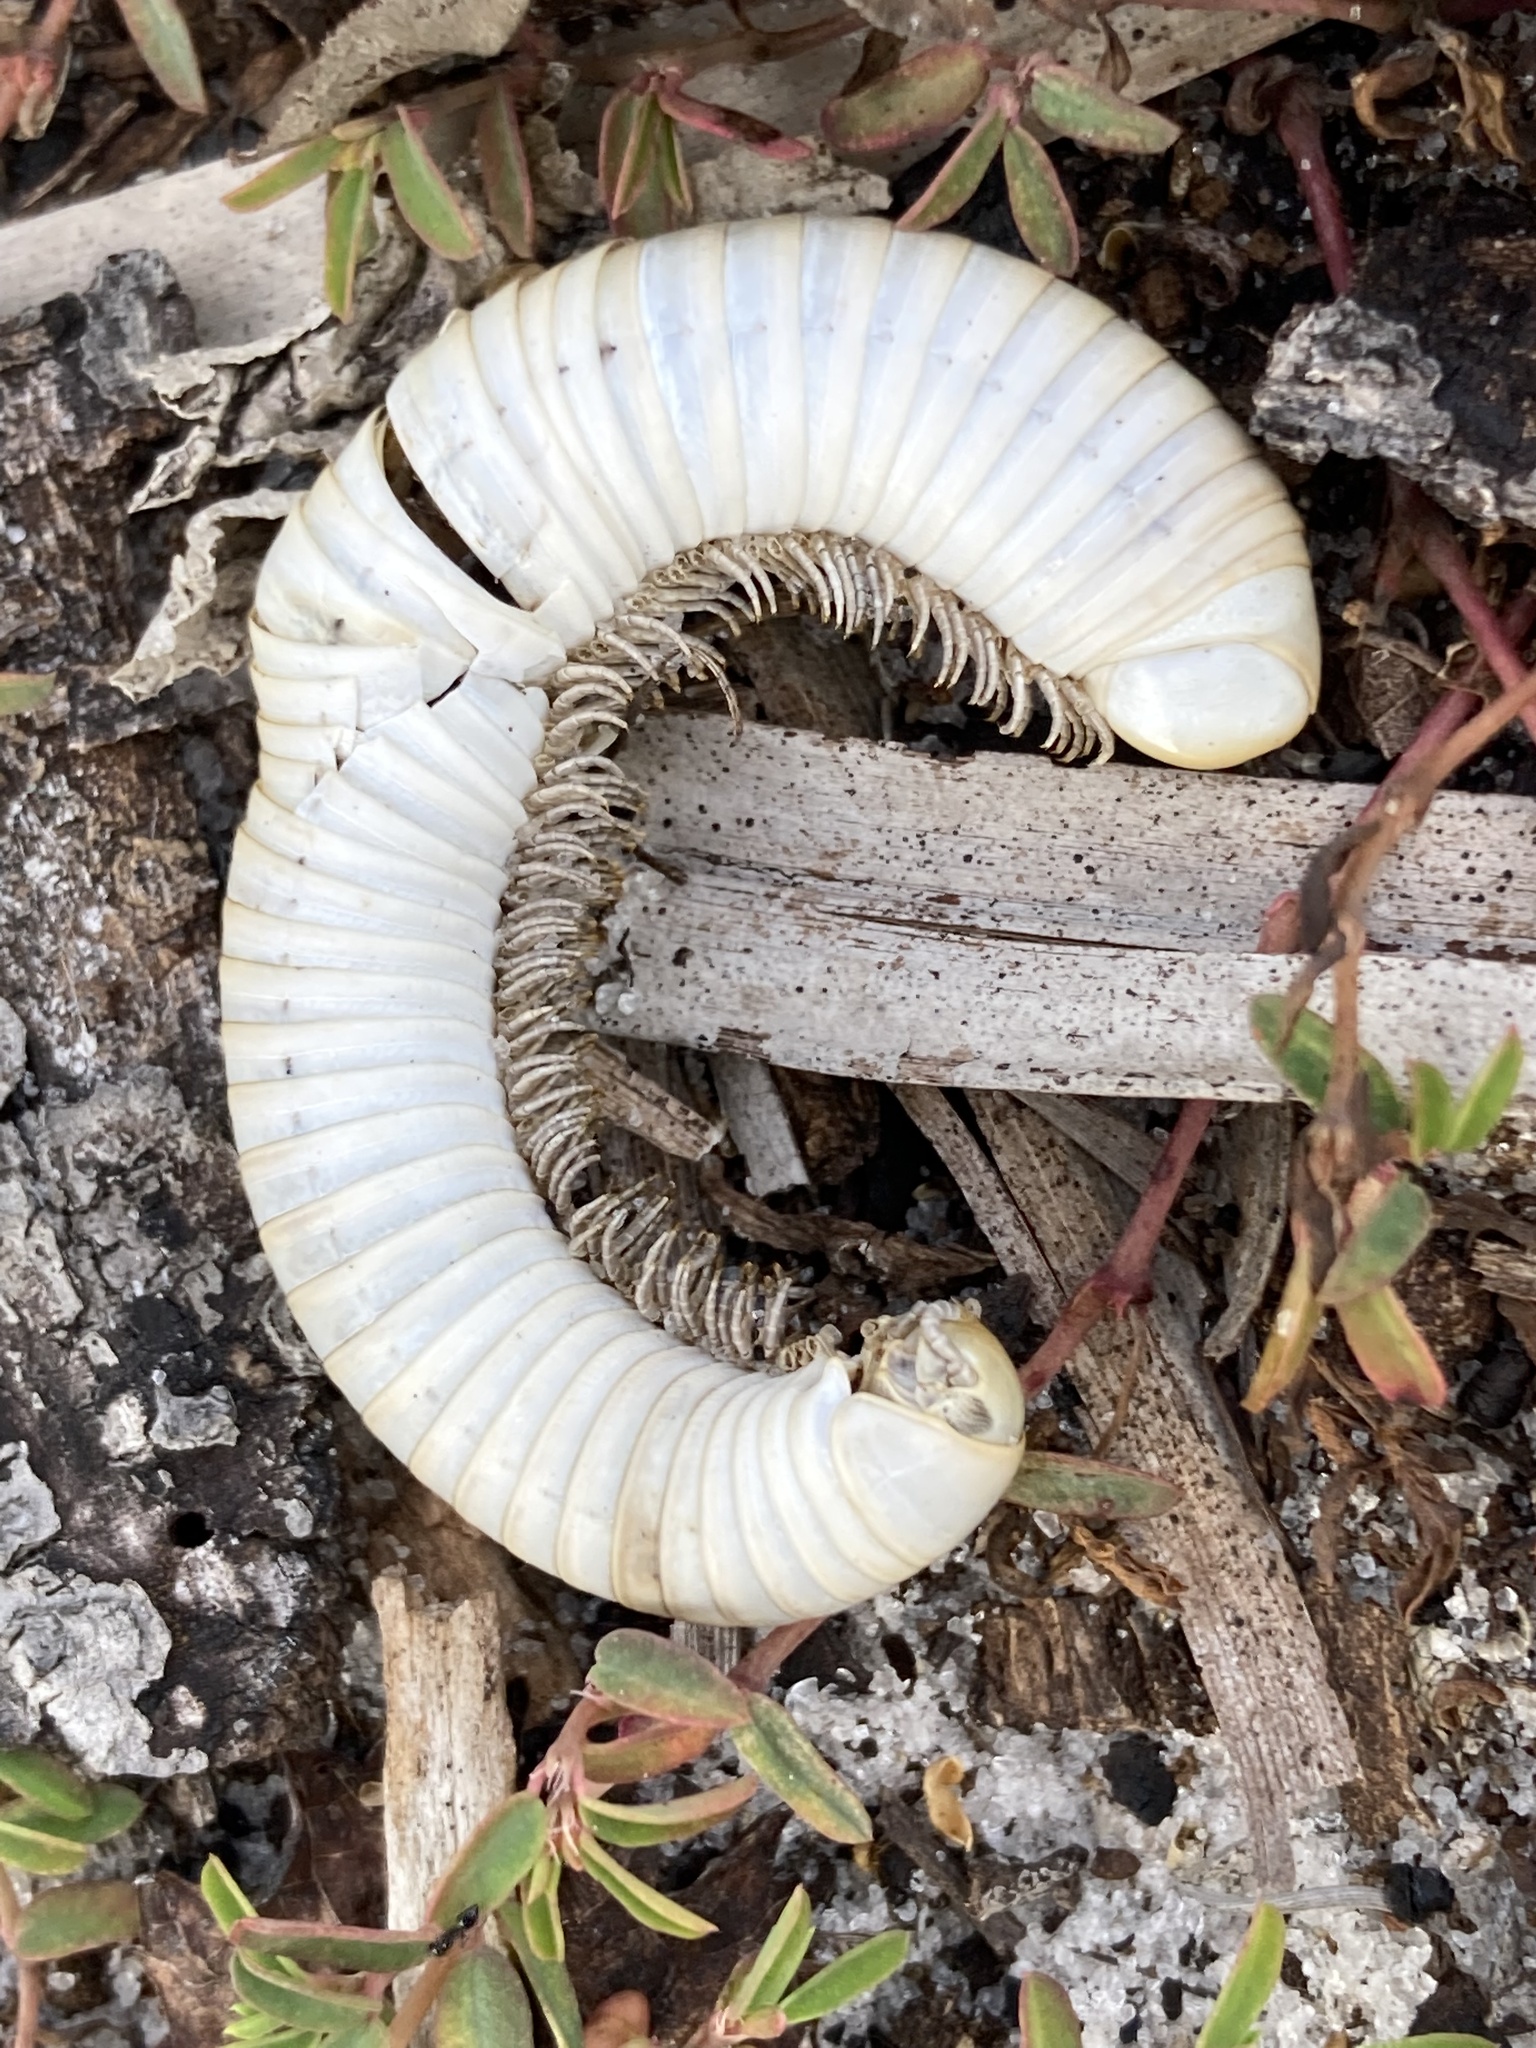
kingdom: Animalia
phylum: Arthropoda
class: Diplopoda
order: Spirobolida
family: Spirobolidae
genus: Narceus
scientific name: Narceus gordanus
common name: Grayish-green millipede
